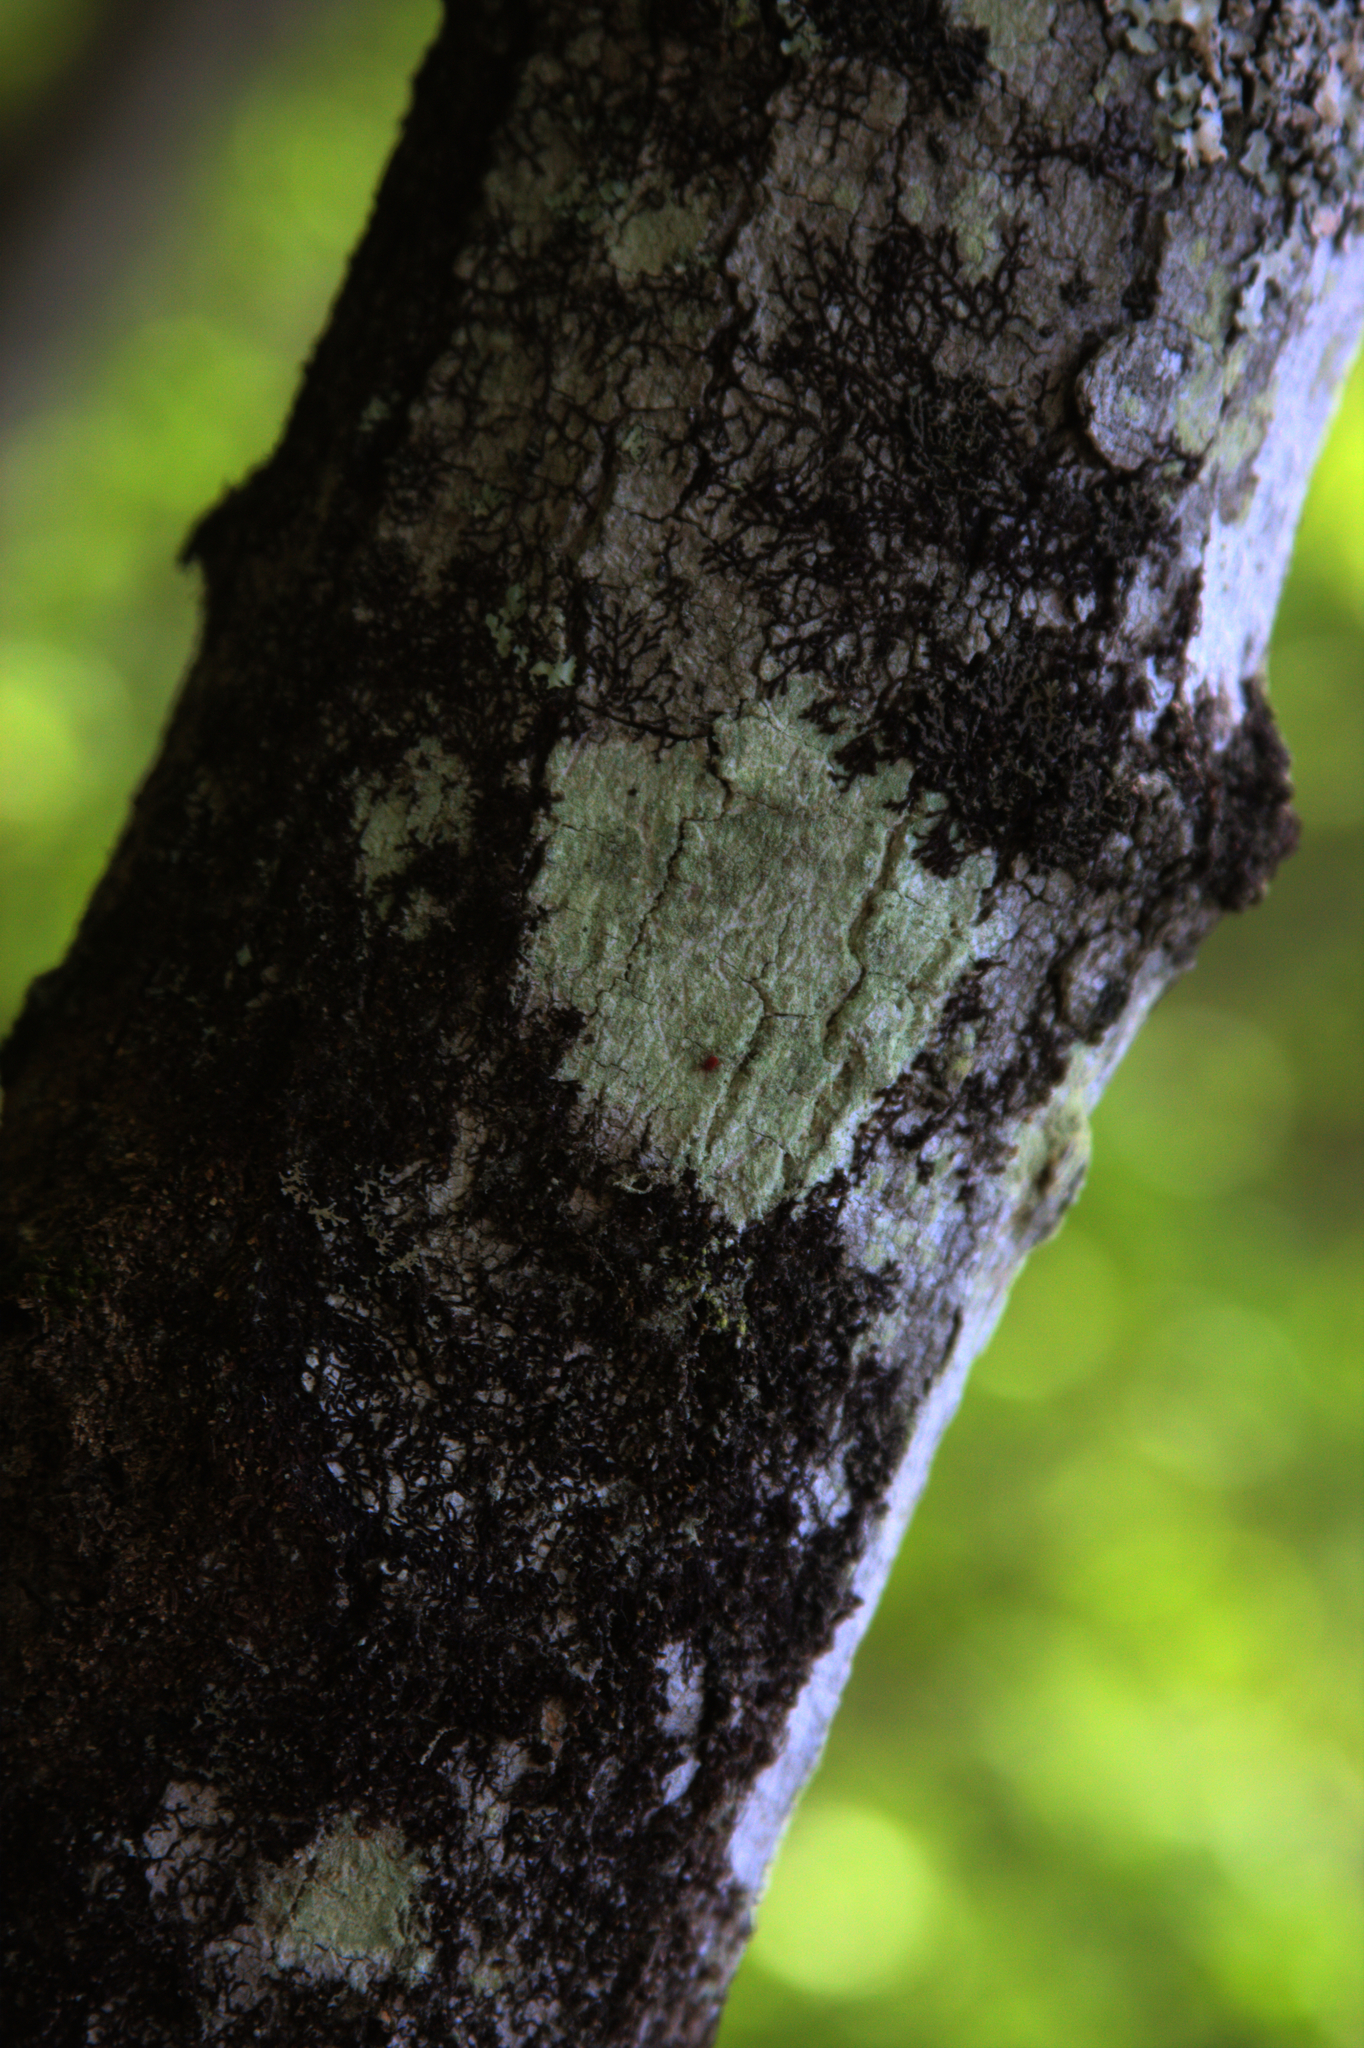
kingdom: Plantae
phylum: Marchantiophyta
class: Jungermanniopsida
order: Porellales
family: Frullaniaceae
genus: Frullania
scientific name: Frullania eboracensis
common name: New york scalewort
